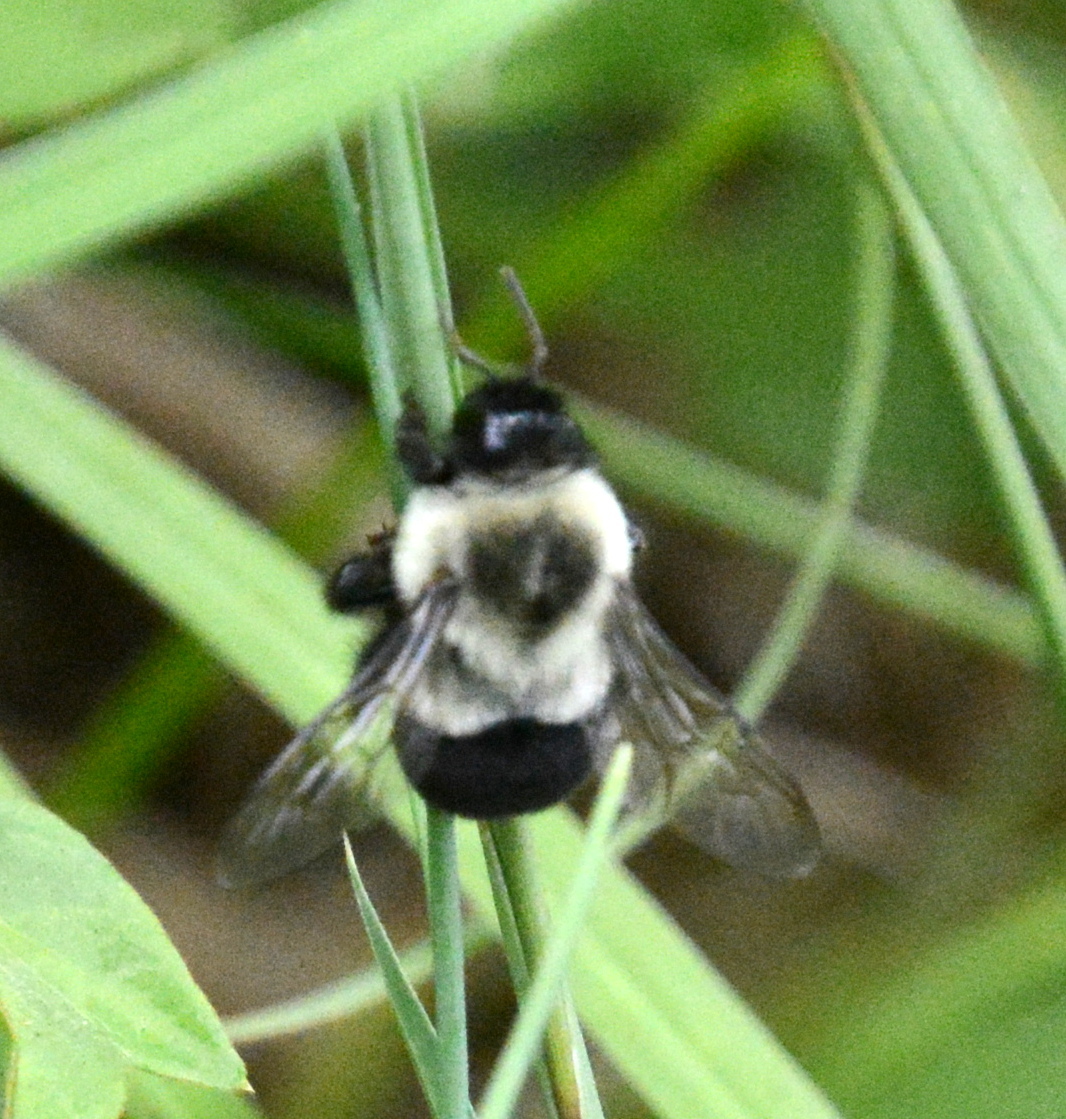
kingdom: Animalia
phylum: Arthropoda
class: Insecta
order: Hymenoptera
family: Apidae
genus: Bombus
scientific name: Bombus impatiens
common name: Common eastern bumble bee
